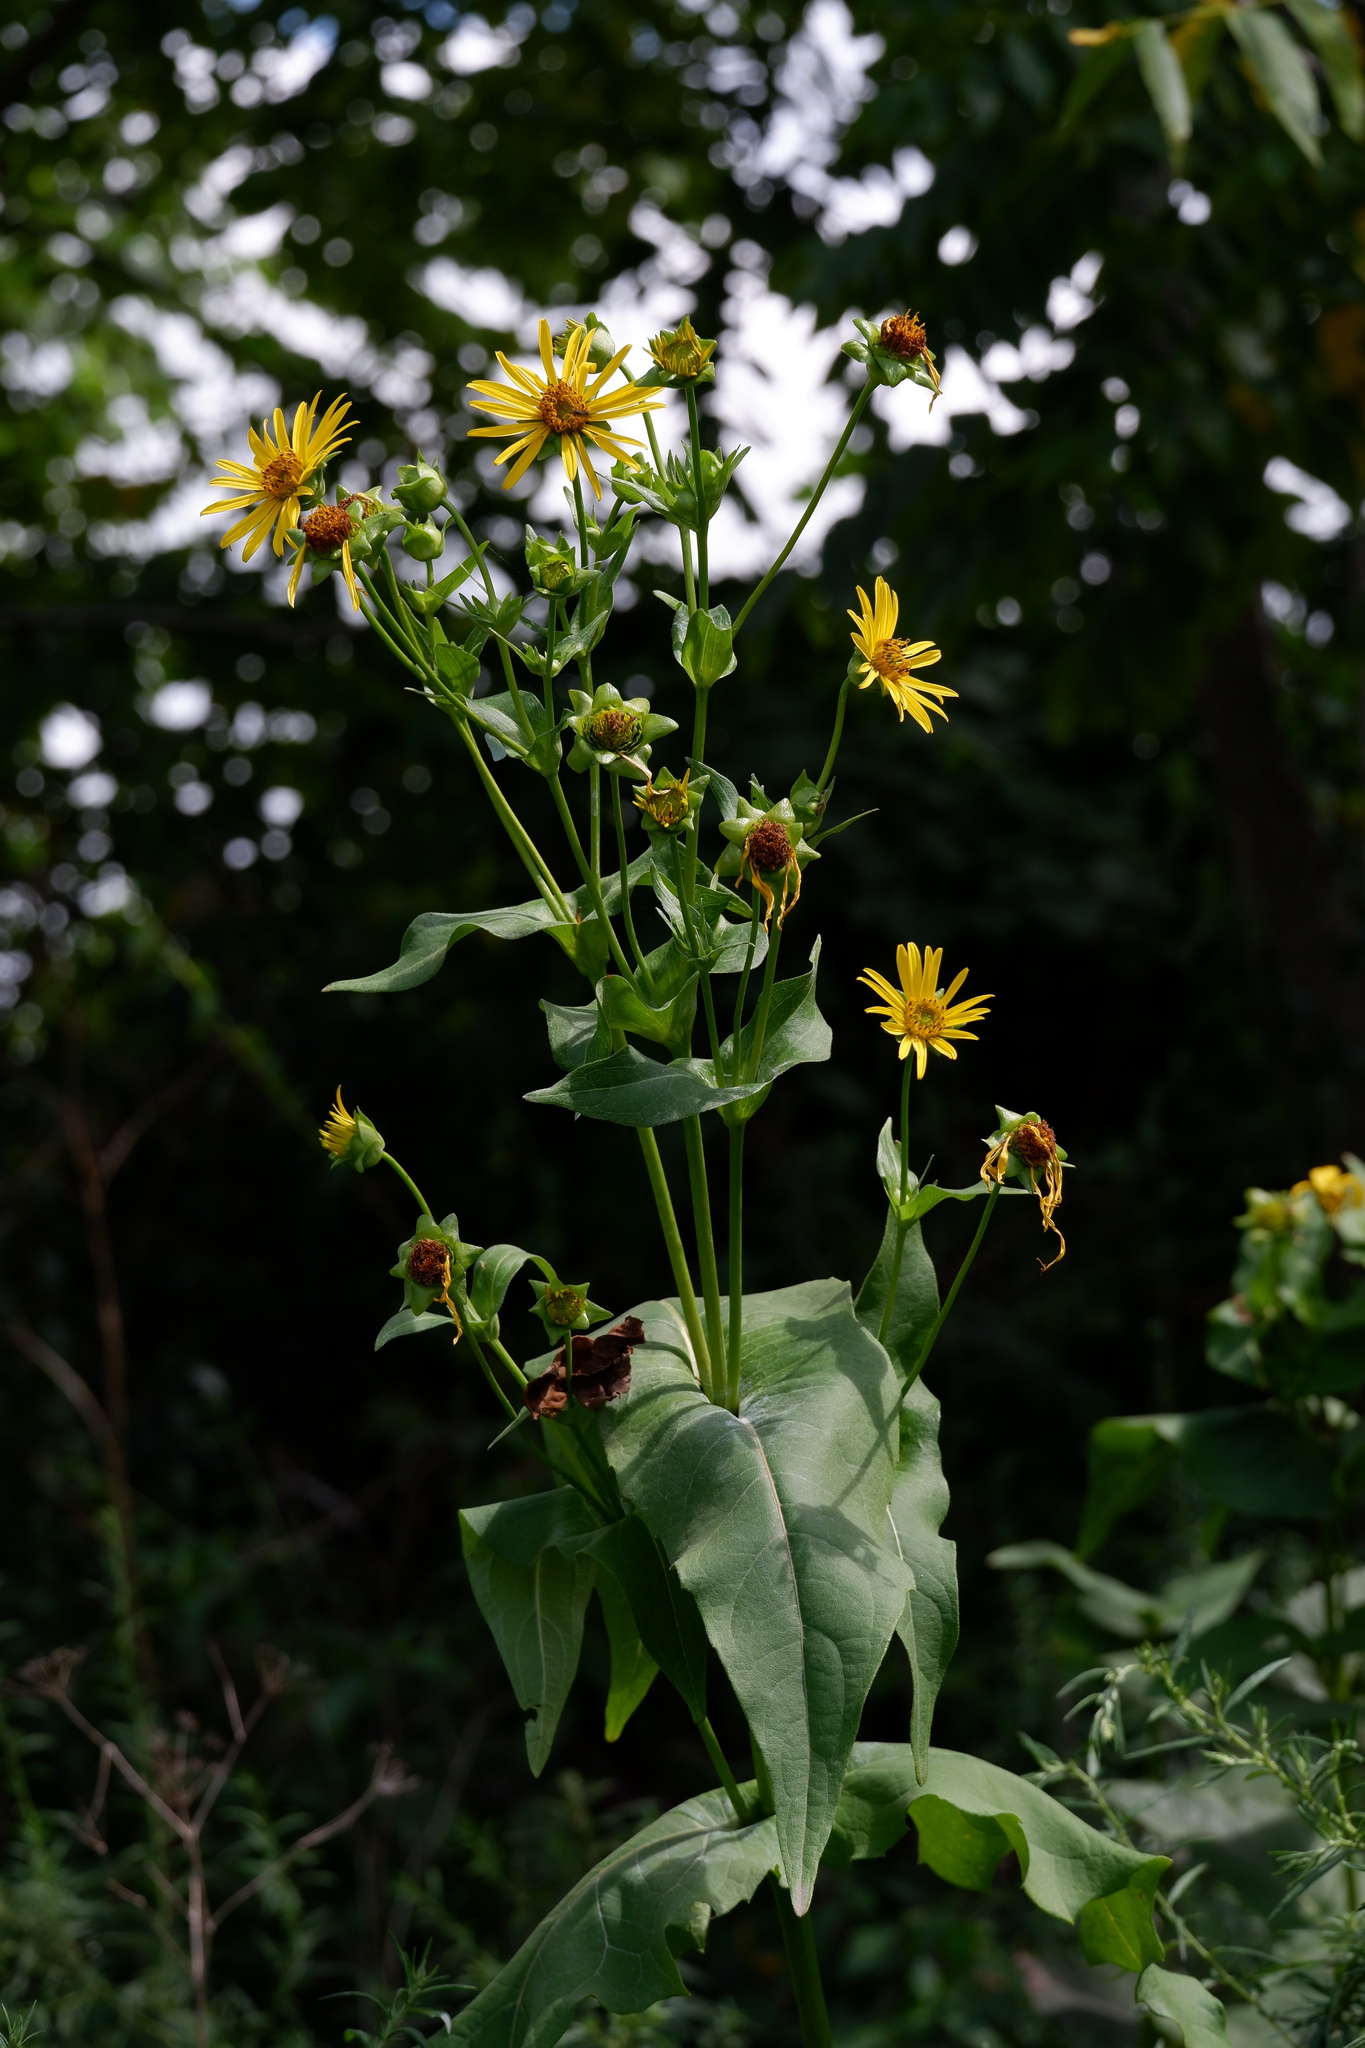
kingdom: Plantae
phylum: Tracheophyta
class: Magnoliopsida
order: Asterales
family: Asteraceae
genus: Silphium
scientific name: Silphium perfoliatum
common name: Cup-plant
